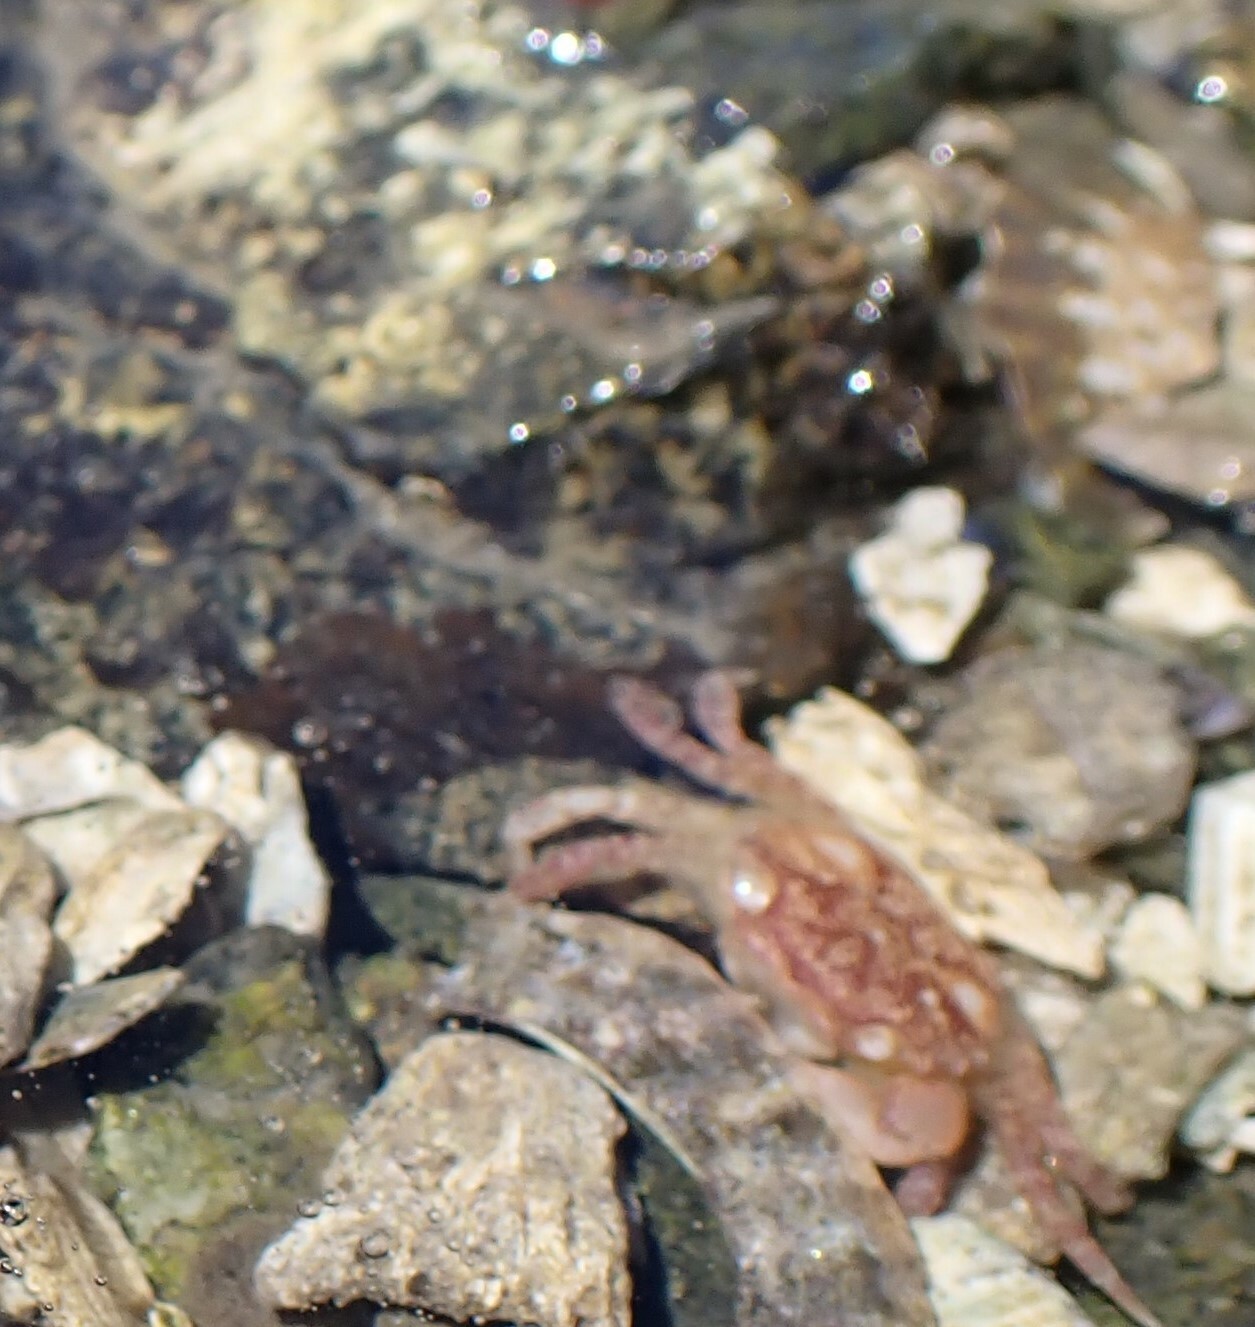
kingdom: Animalia
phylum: Arthropoda
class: Malacostraca
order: Decapoda
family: Varunidae
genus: Hemigrapsus
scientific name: Hemigrapsus oregonensis
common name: Yellow shore crab
